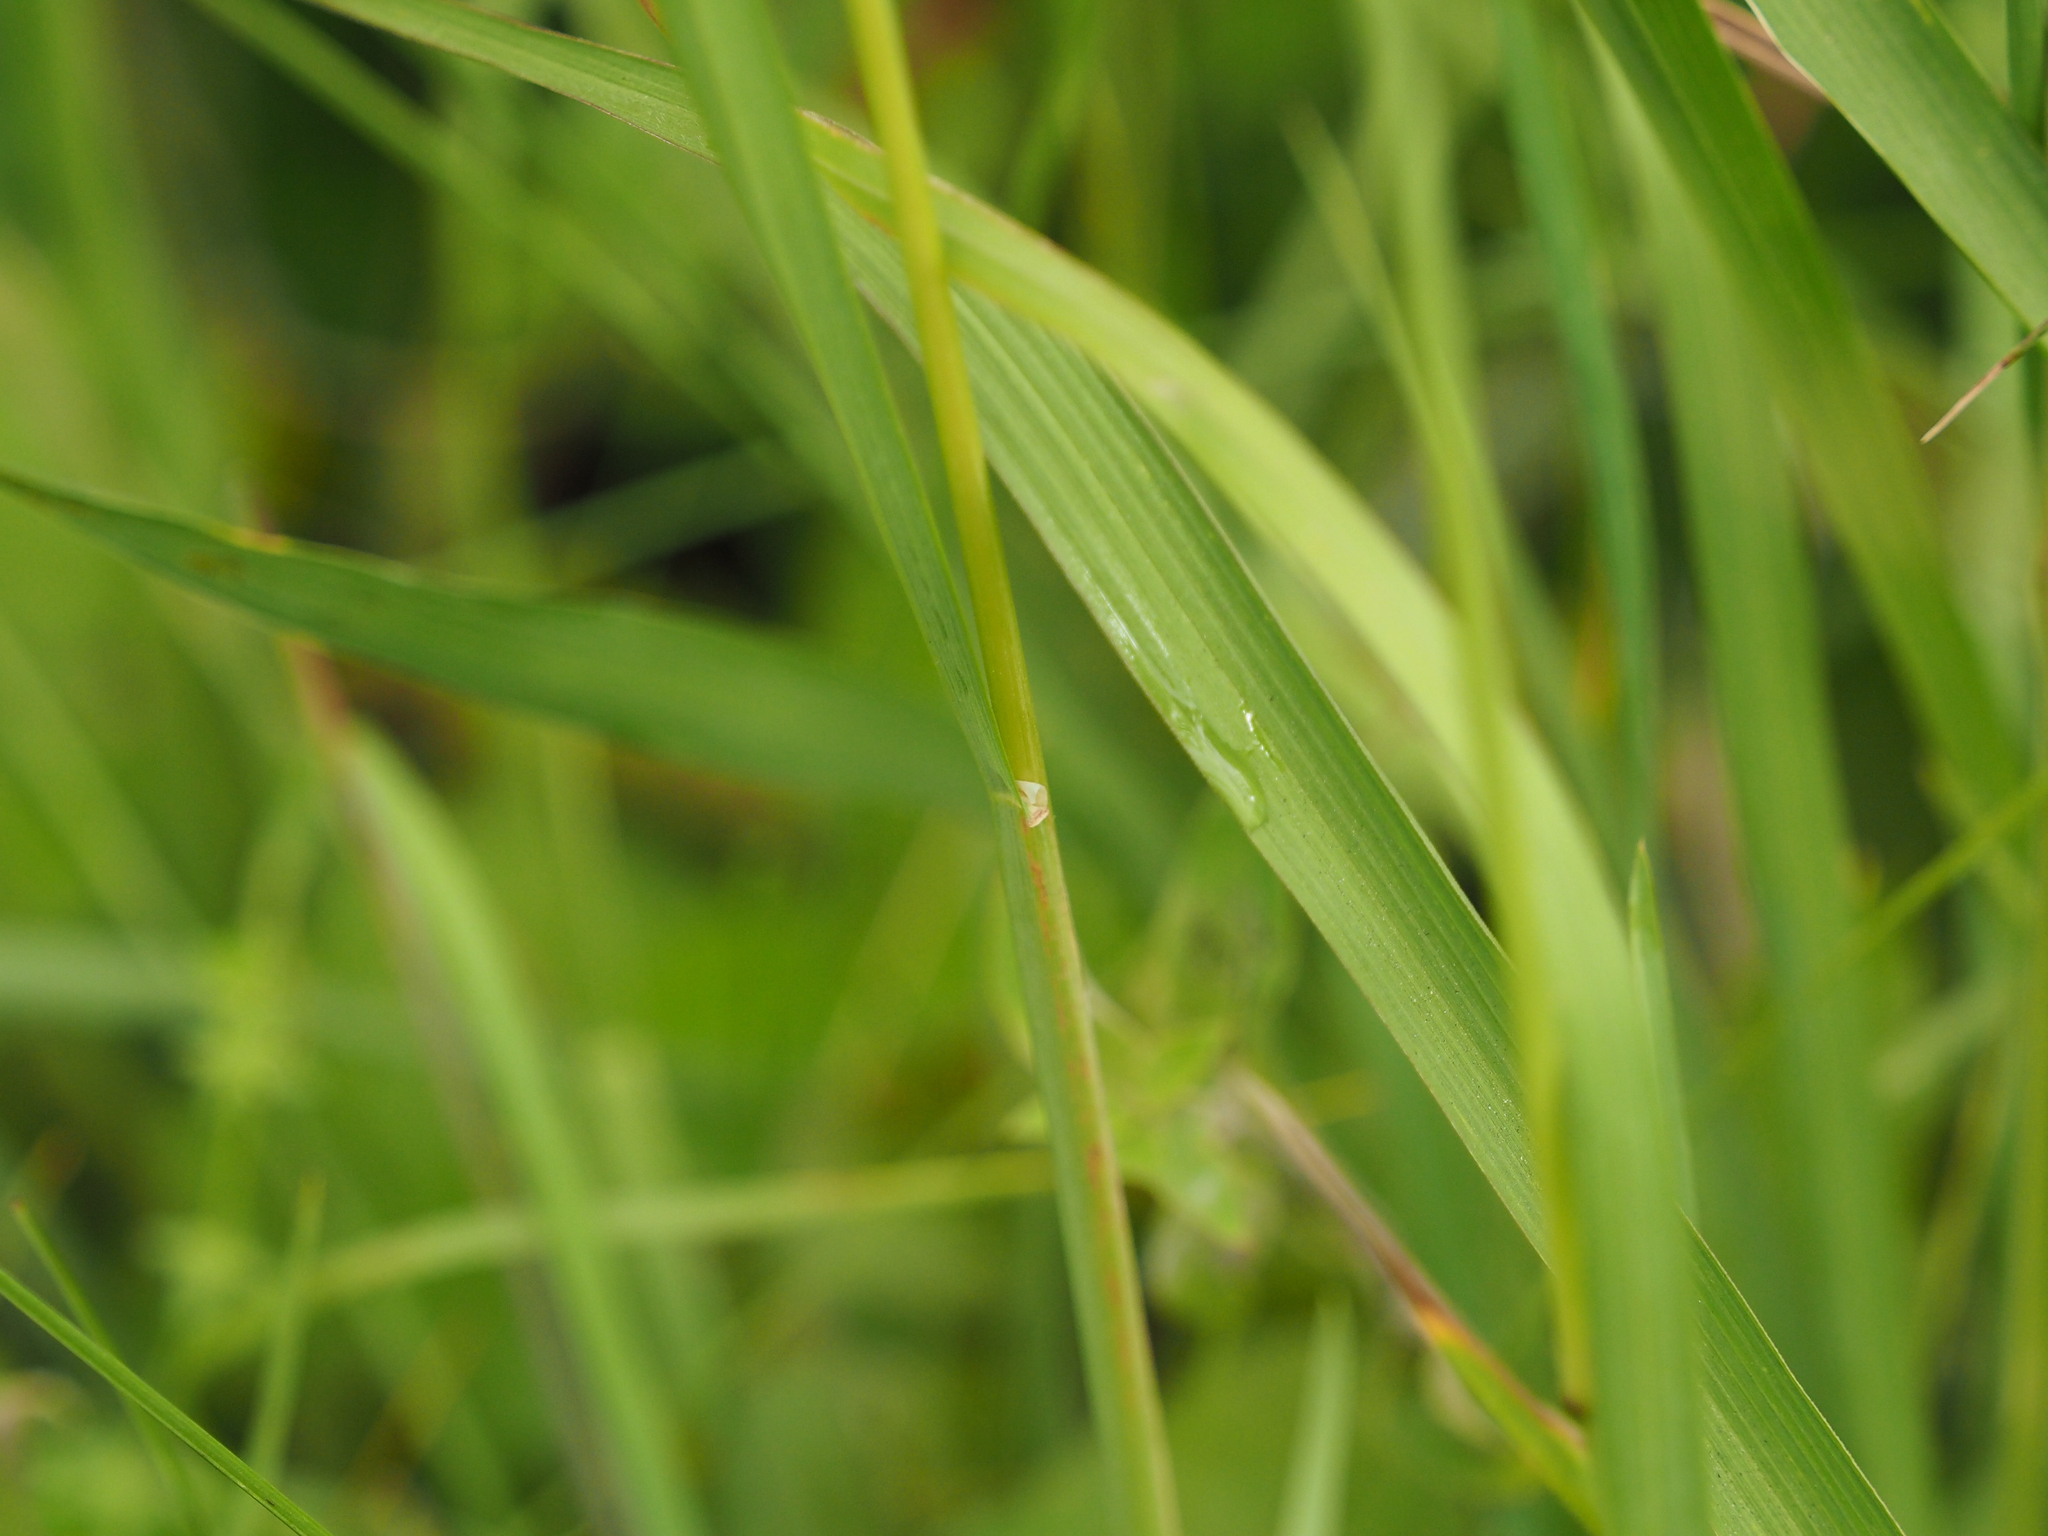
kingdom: Plantae
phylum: Tracheophyta
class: Liliopsida
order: Poales
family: Poaceae
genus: Dactylis
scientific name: Dactylis glomerata
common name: Orchardgrass
